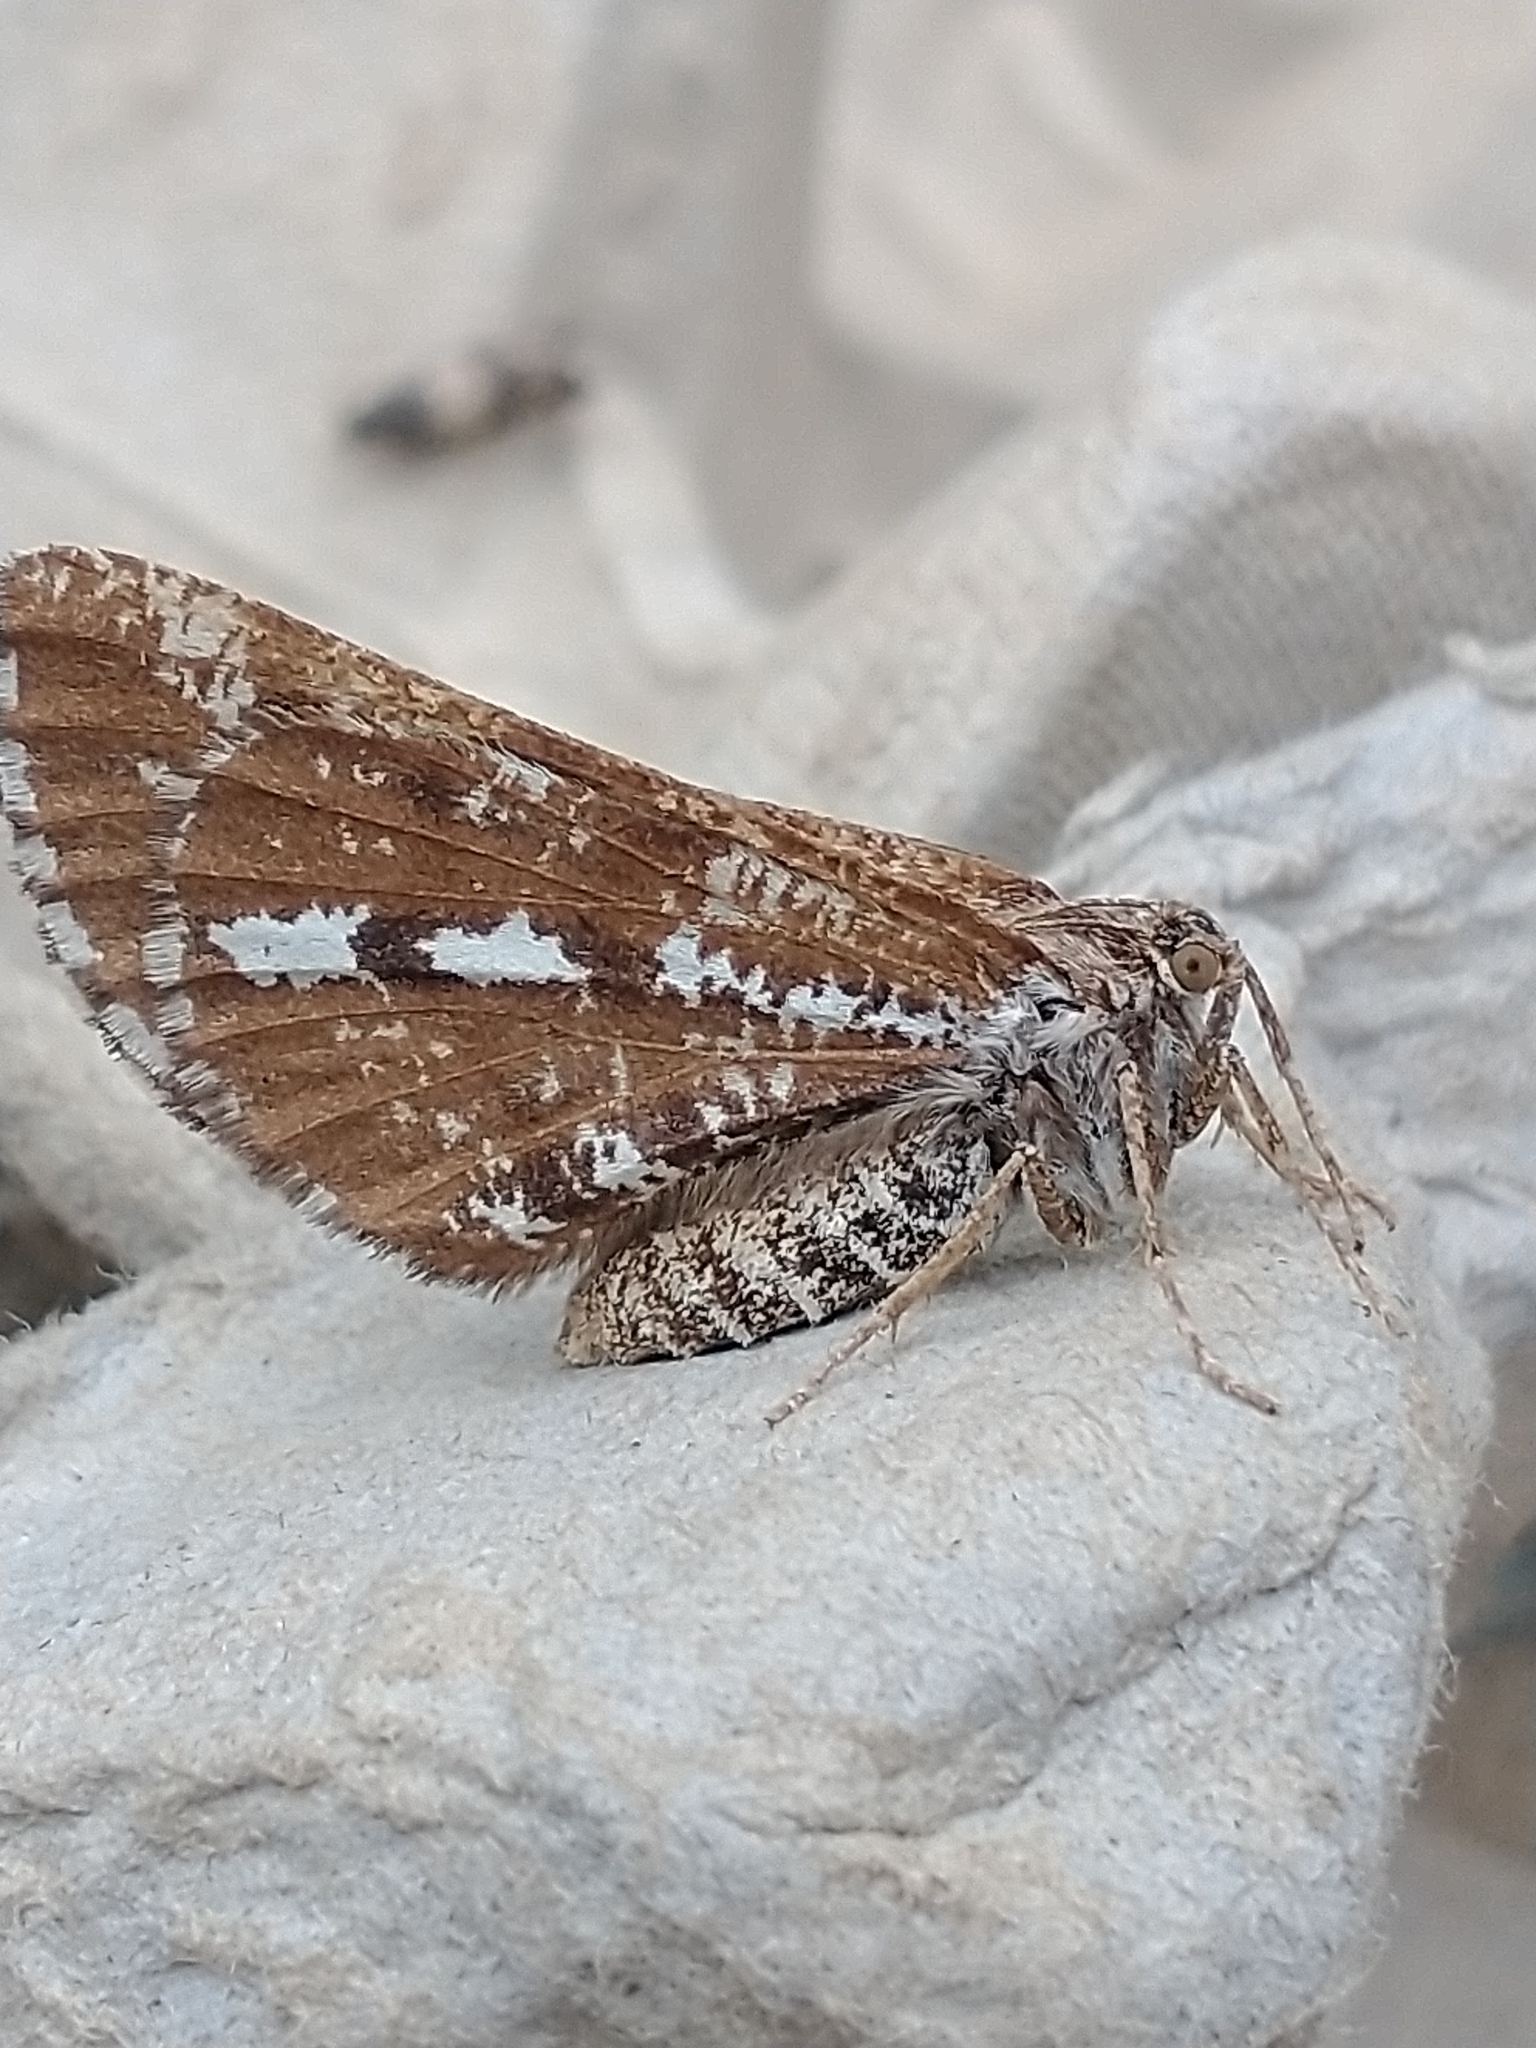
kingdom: Animalia
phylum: Arthropoda
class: Insecta
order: Lepidoptera
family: Geometridae
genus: Bupalus
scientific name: Bupalus piniaria
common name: Bordered white
